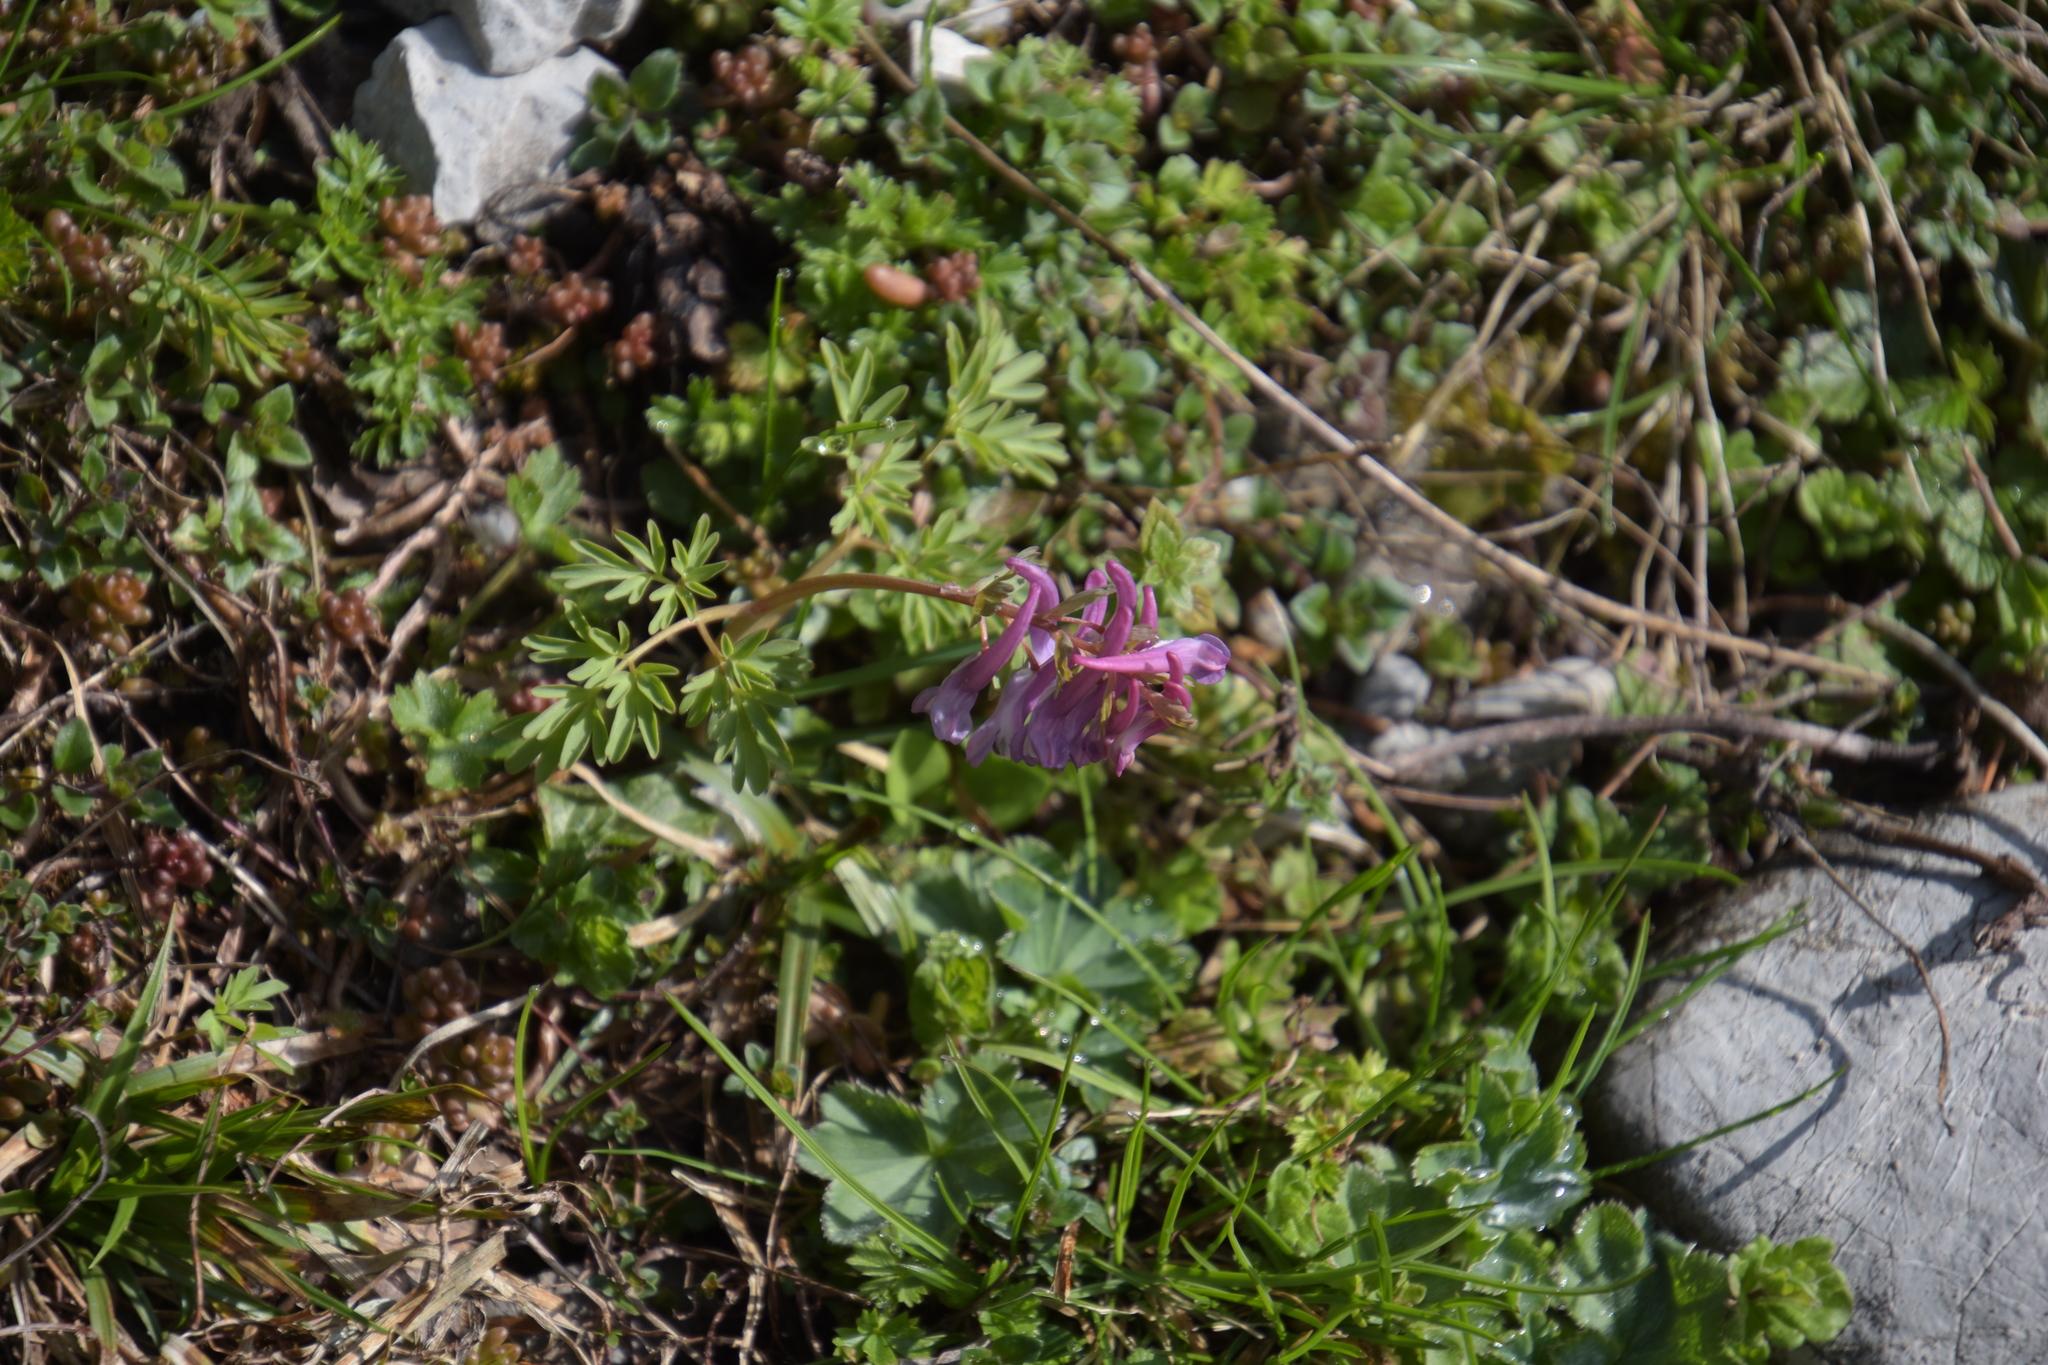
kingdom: Plantae
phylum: Tracheophyta
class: Magnoliopsida
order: Ranunculales
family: Papaveraceae
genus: Corydalis
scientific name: Corydalis solida
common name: Bird-in-a-bush
